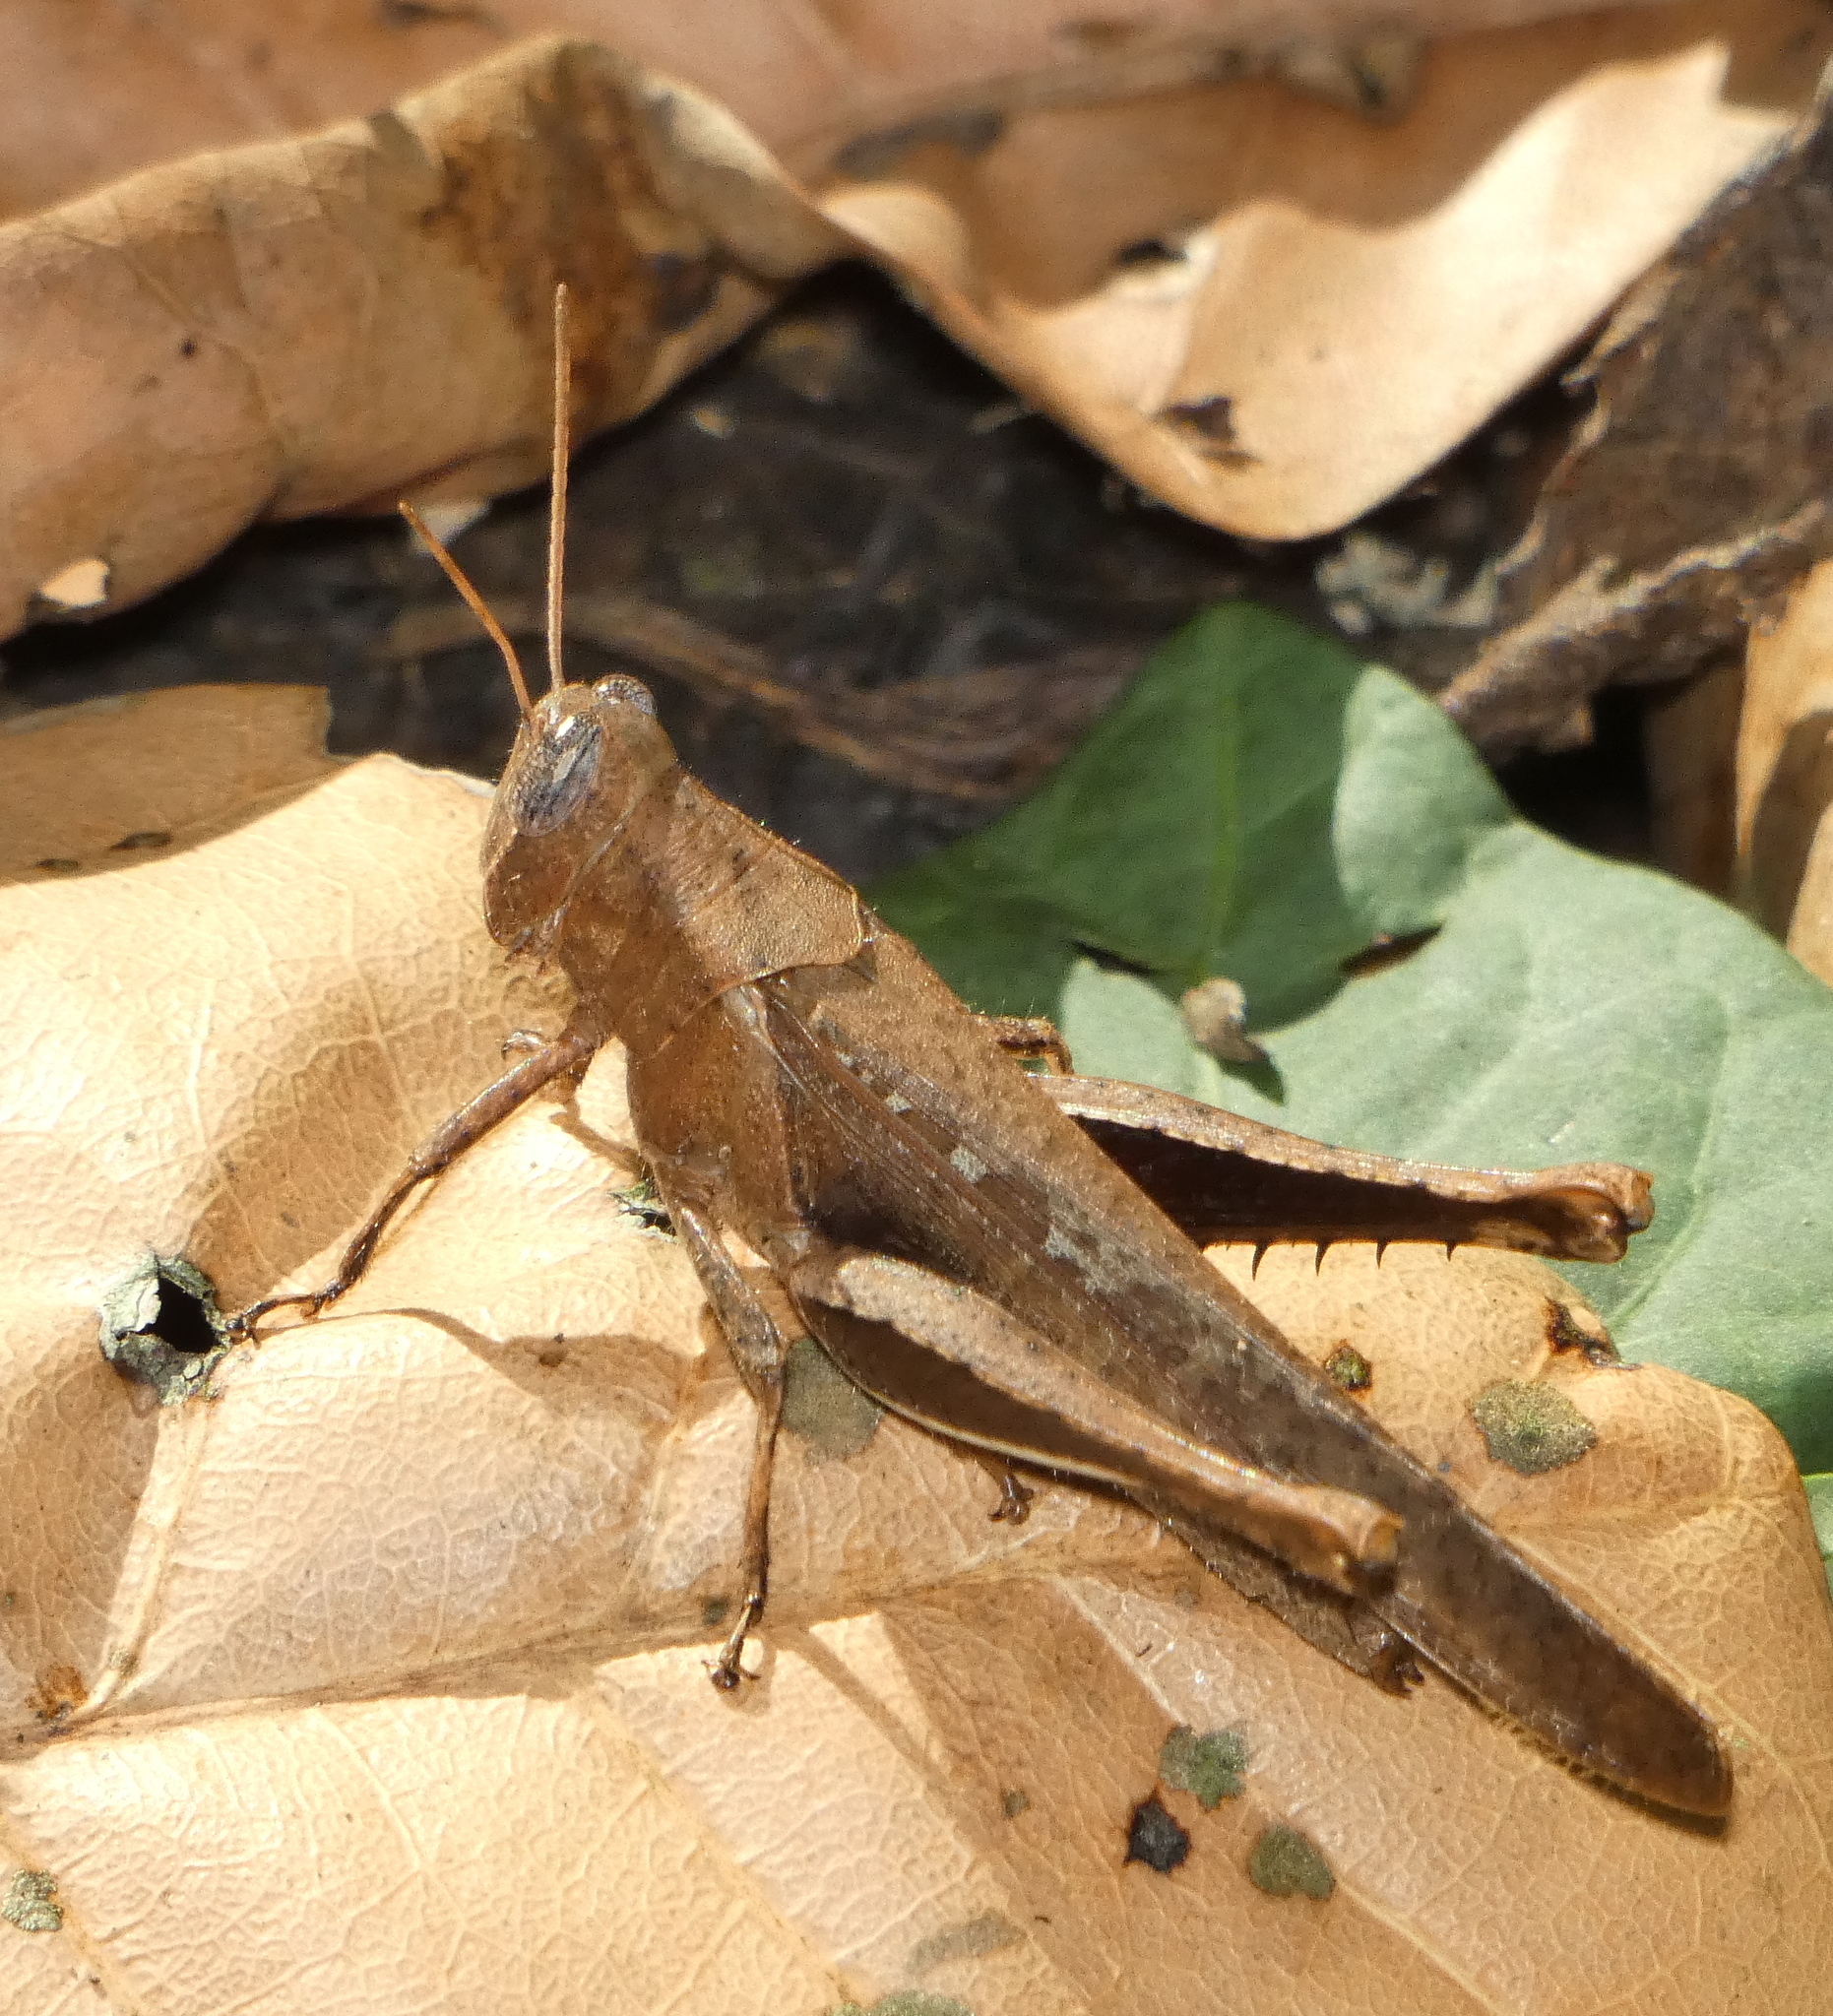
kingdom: Animalia
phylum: Arthropoda
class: Insecta
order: Orthoptera
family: Acrididae
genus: Abracris
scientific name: Abracris flavolineata
